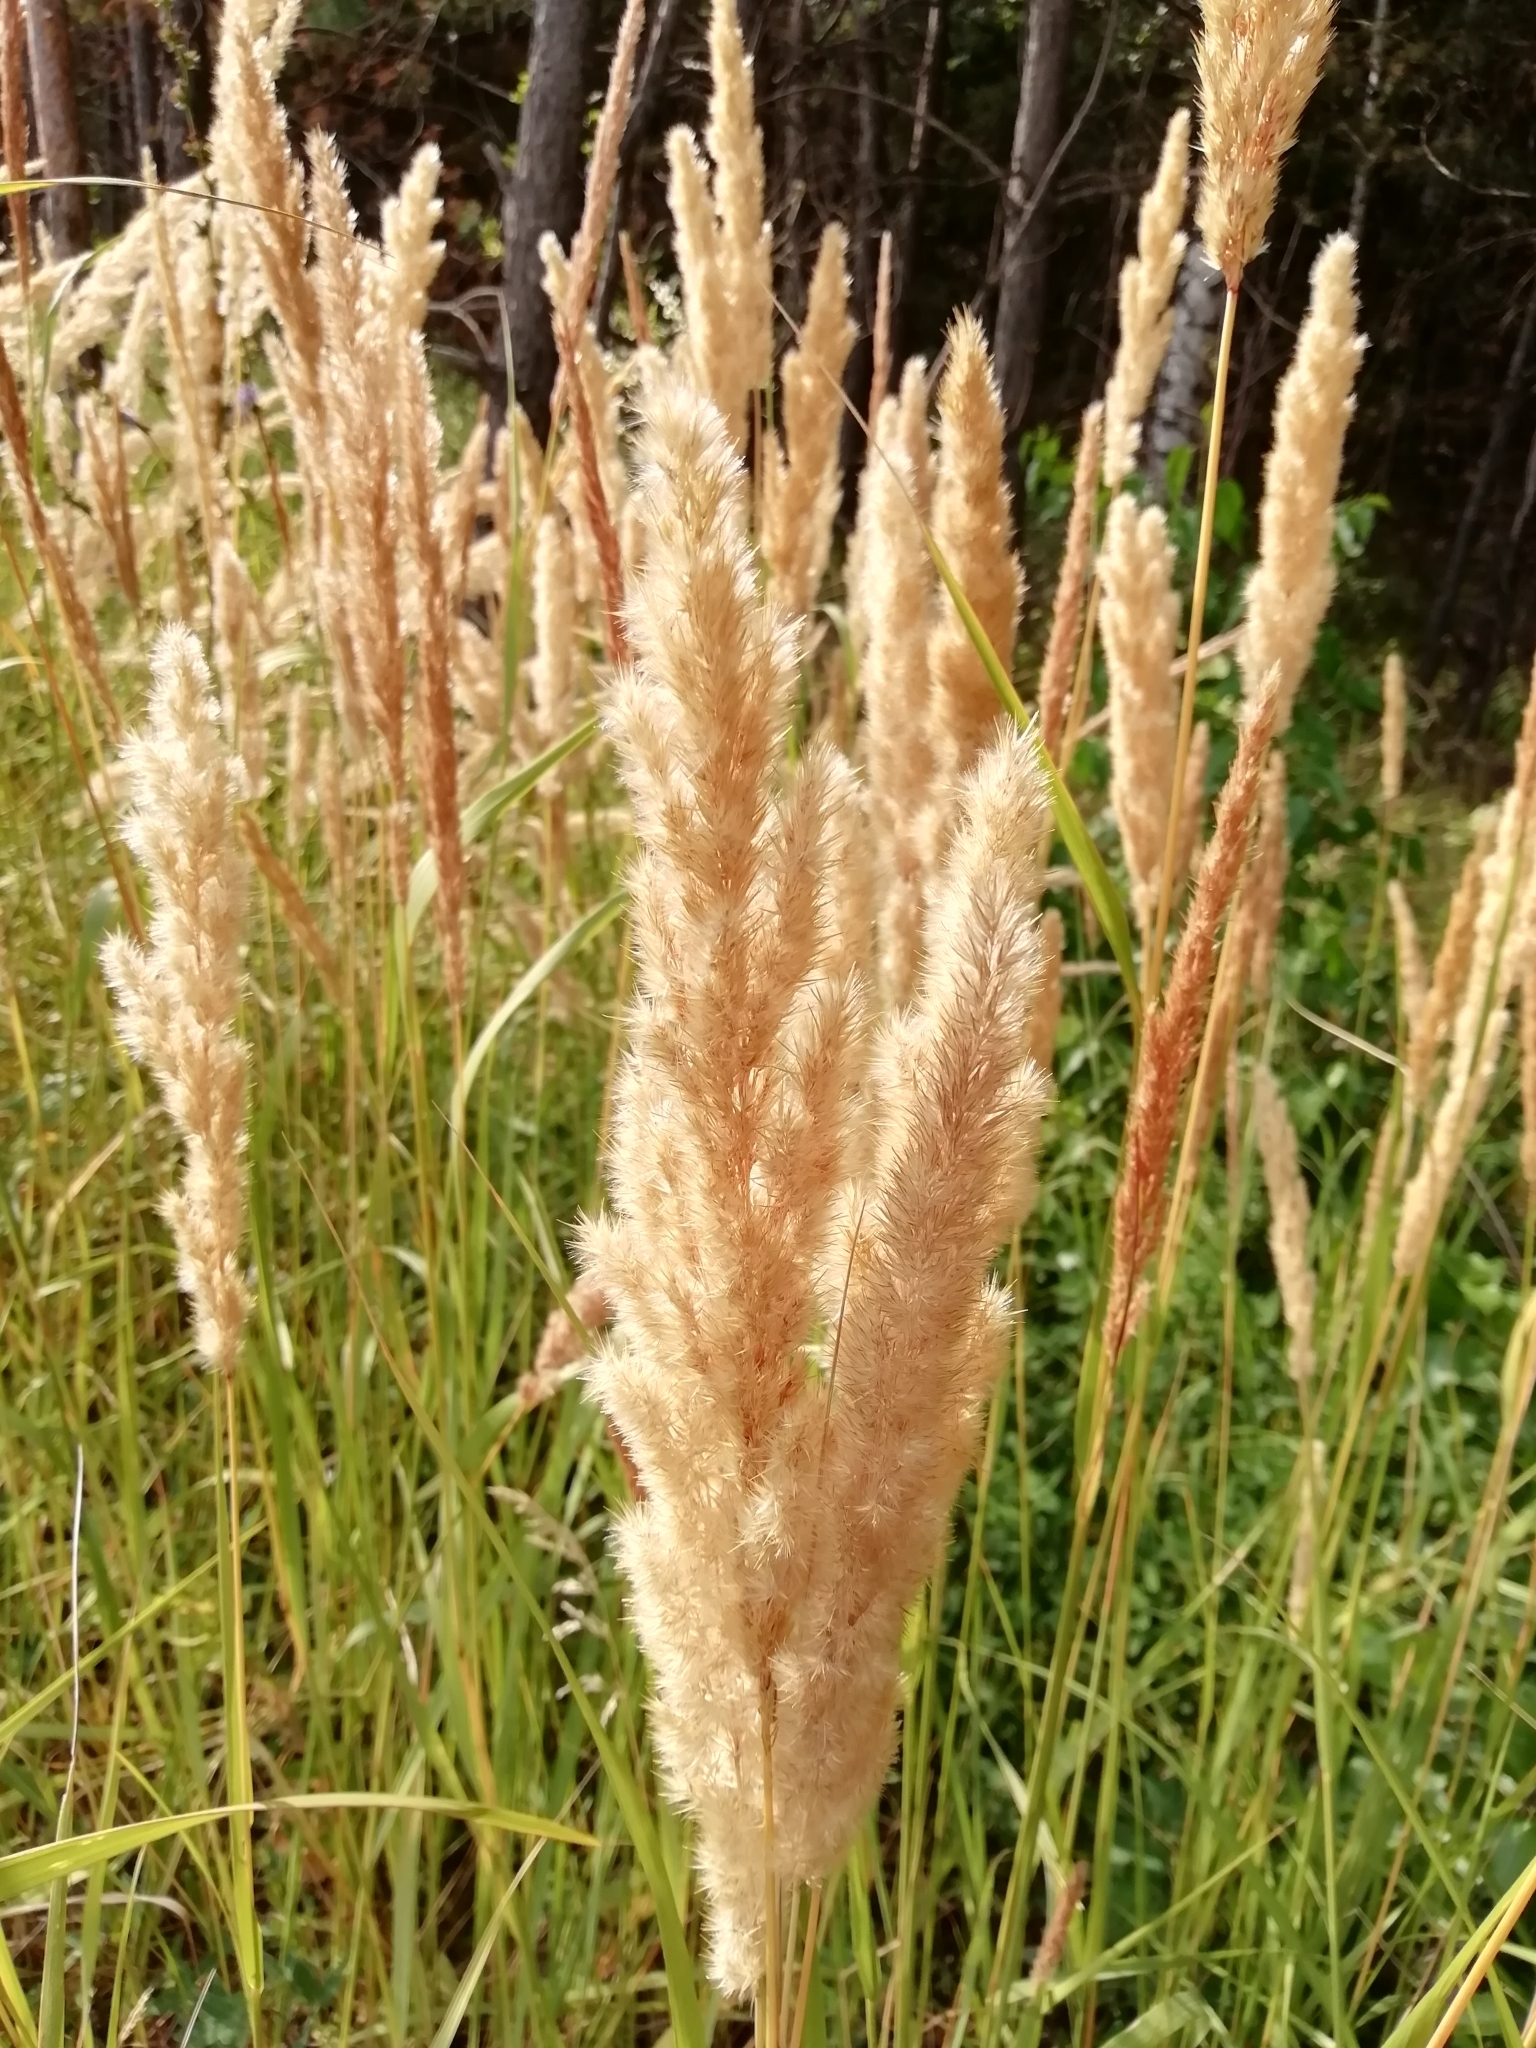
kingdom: Plantae
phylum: Tracheophyta
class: Liliopsida
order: Poales
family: Poaceae
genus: Calamagrostis
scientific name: Calamagrostis epigejos
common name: Wood small-reed
